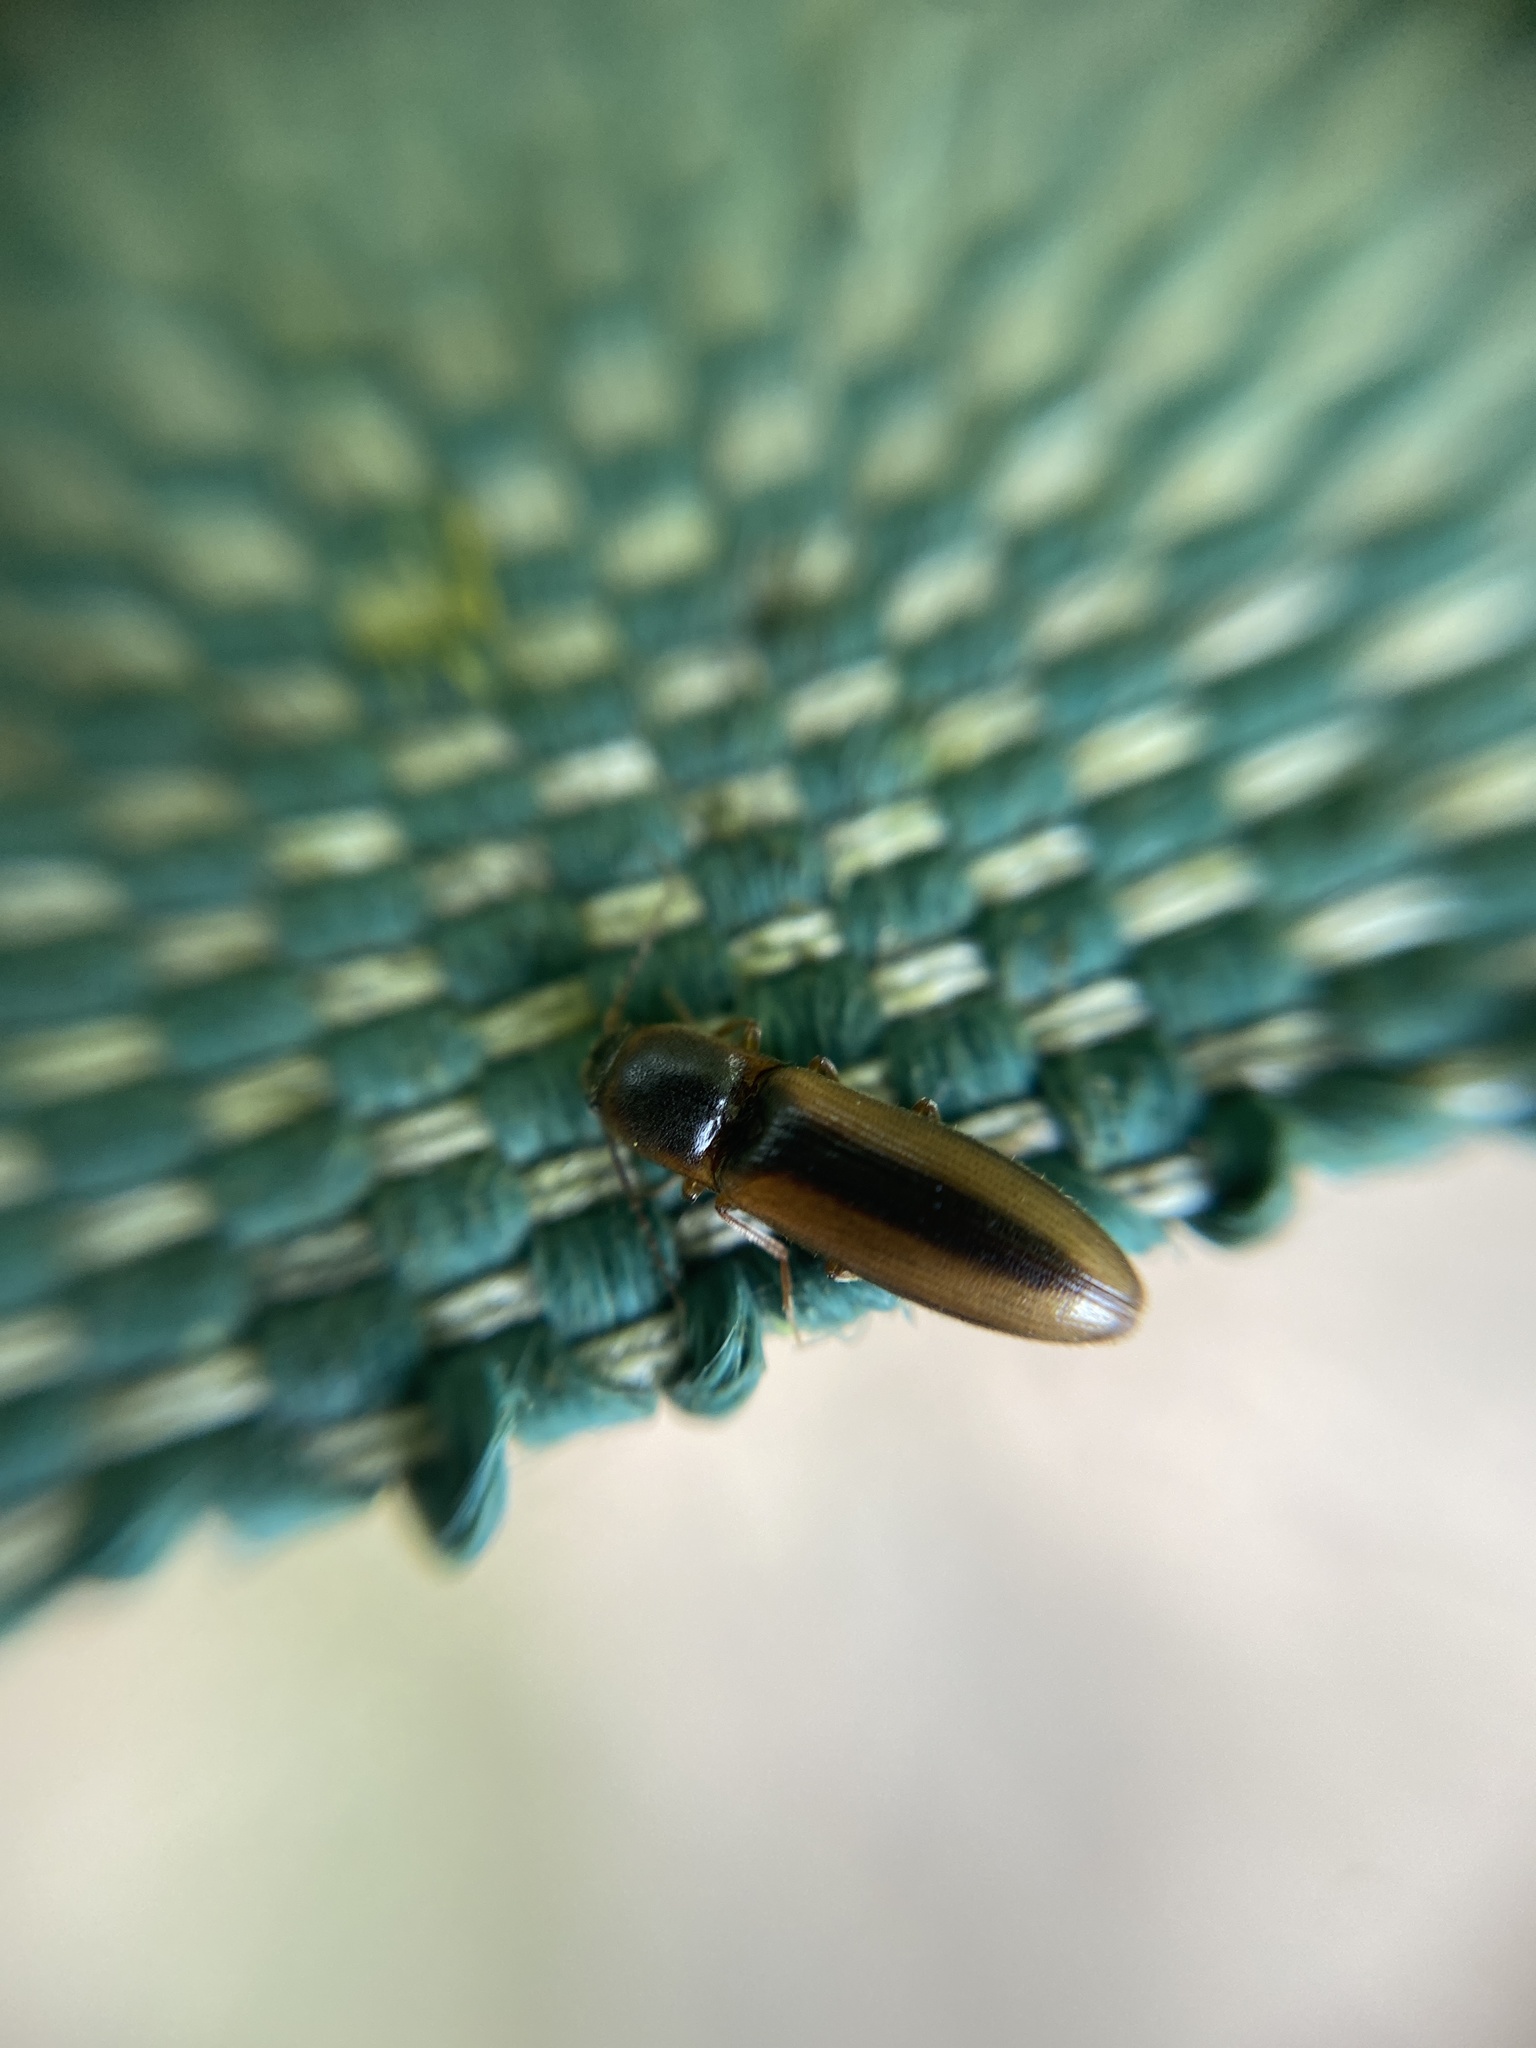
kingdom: Animalia
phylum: Arthropoda
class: Insecta
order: Coleoptera
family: Elateridae
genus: Dalopius
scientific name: Dalopius marginatus
